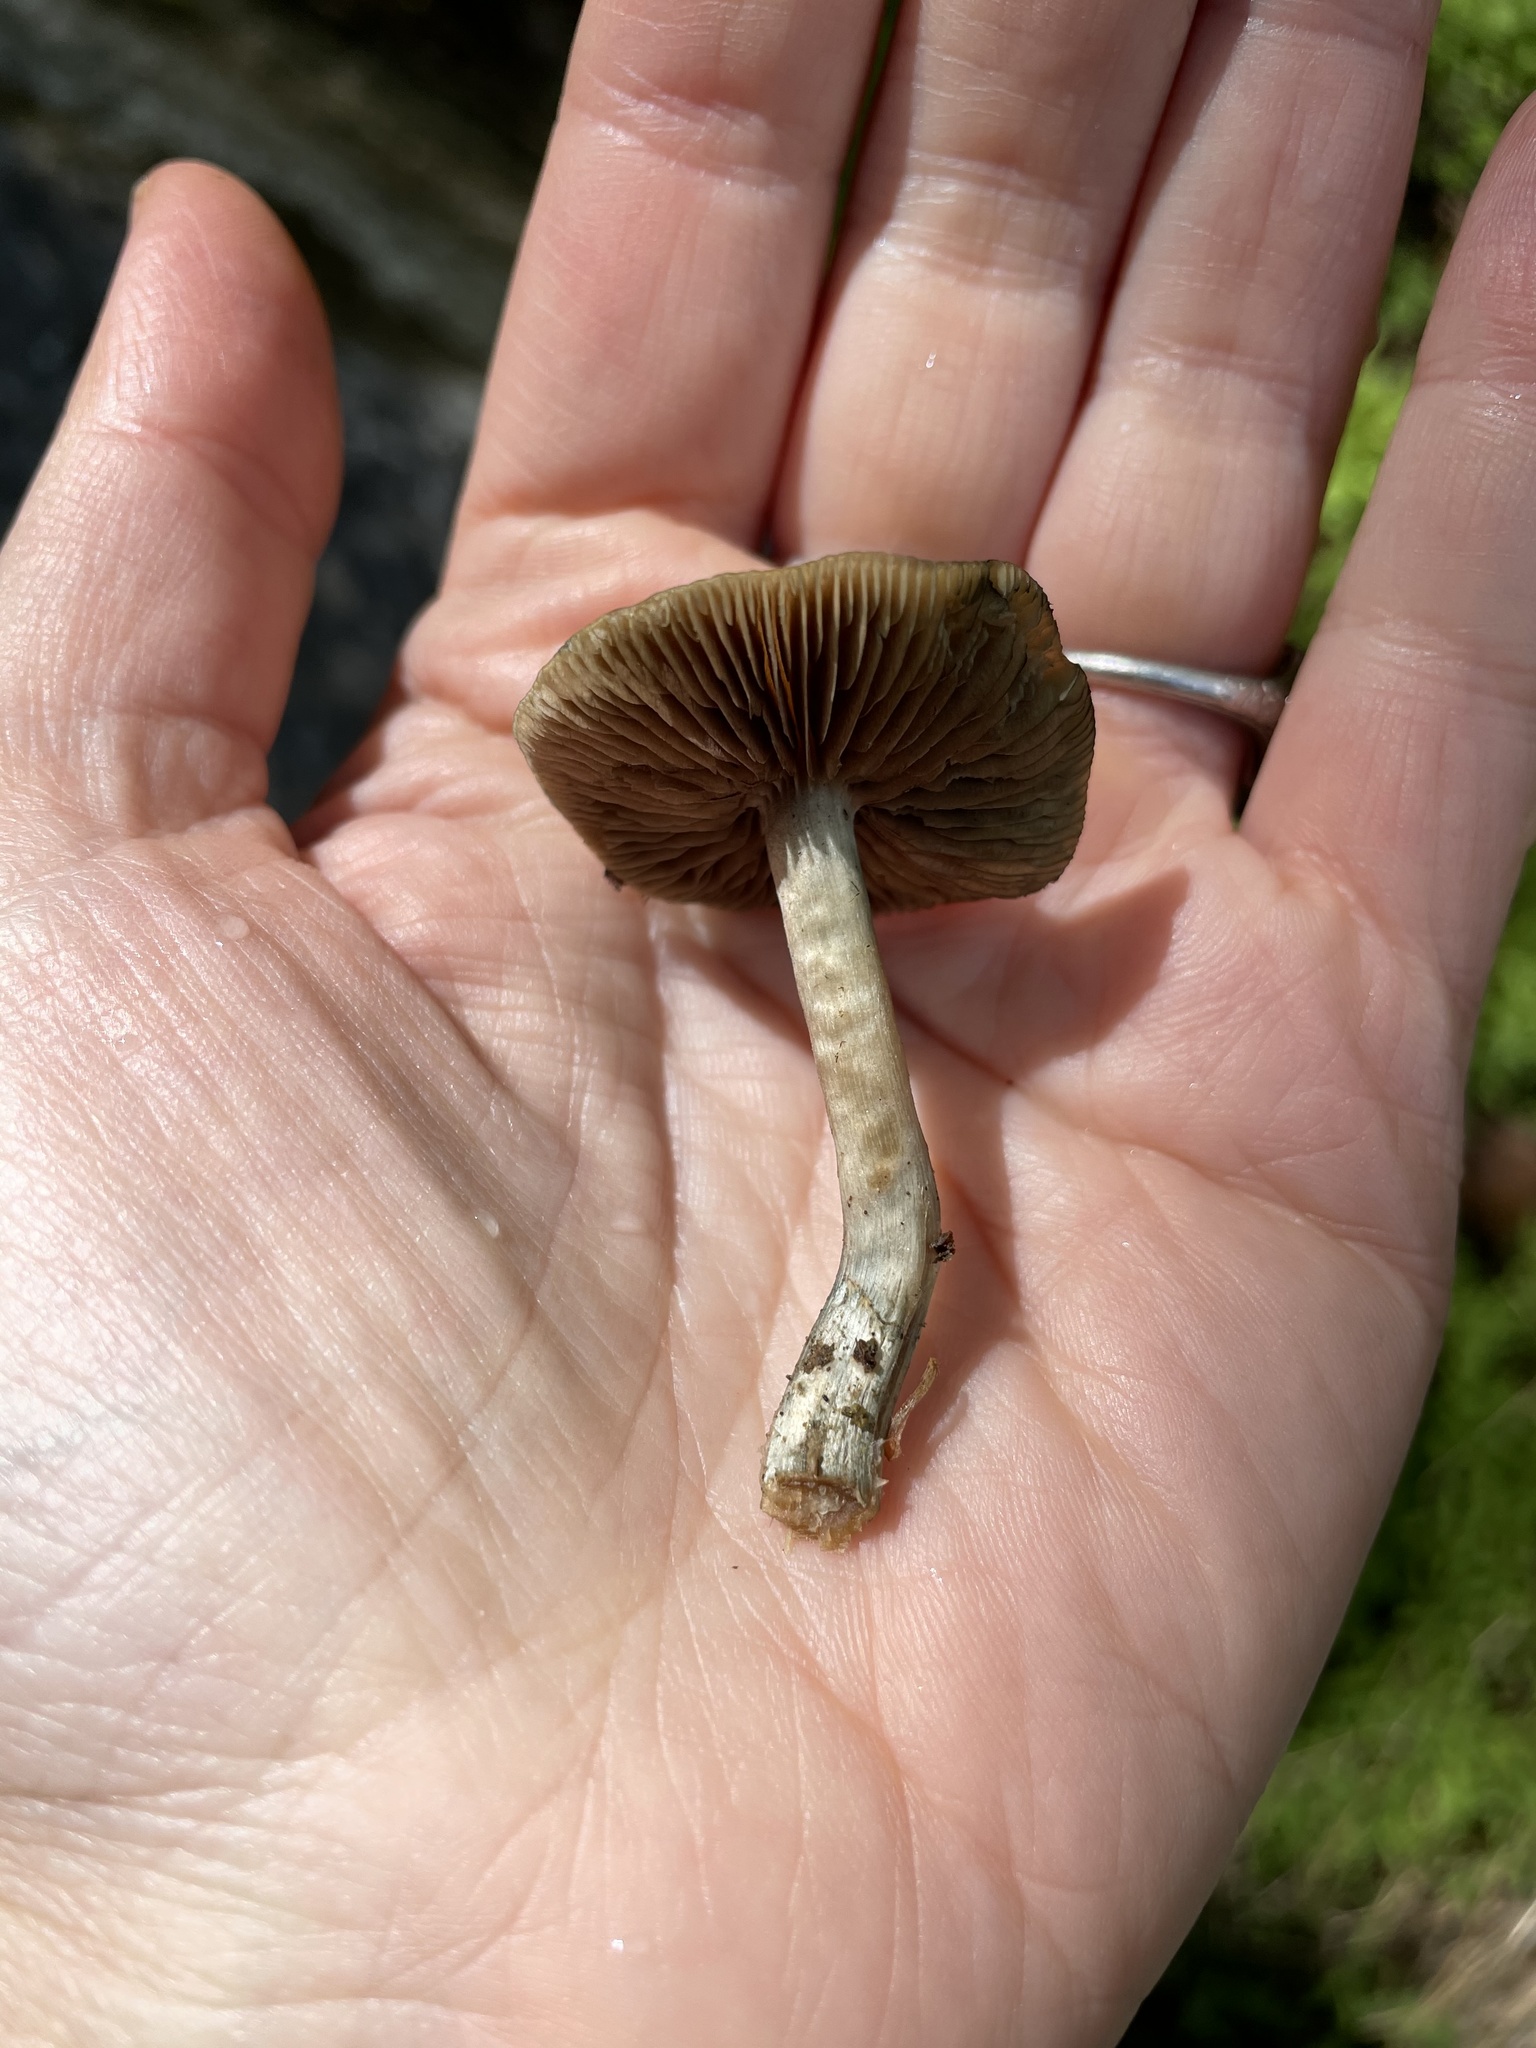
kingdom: Fungi
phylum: Basidiomycota
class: Agaricomycetes
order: Agaricales
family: Hymenogastraceae
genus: Psilocybe
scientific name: Psilocybe ovoideocystidiata
